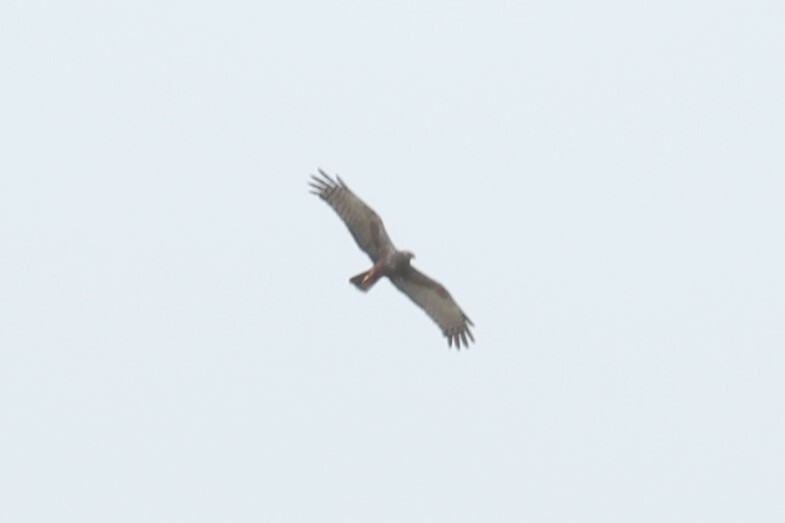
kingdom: Animalia
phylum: Chordata
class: Aves
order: Accipitriformes
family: Accipitridae
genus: Circus
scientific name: Circus ranivorus
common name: African marsh-harrier
